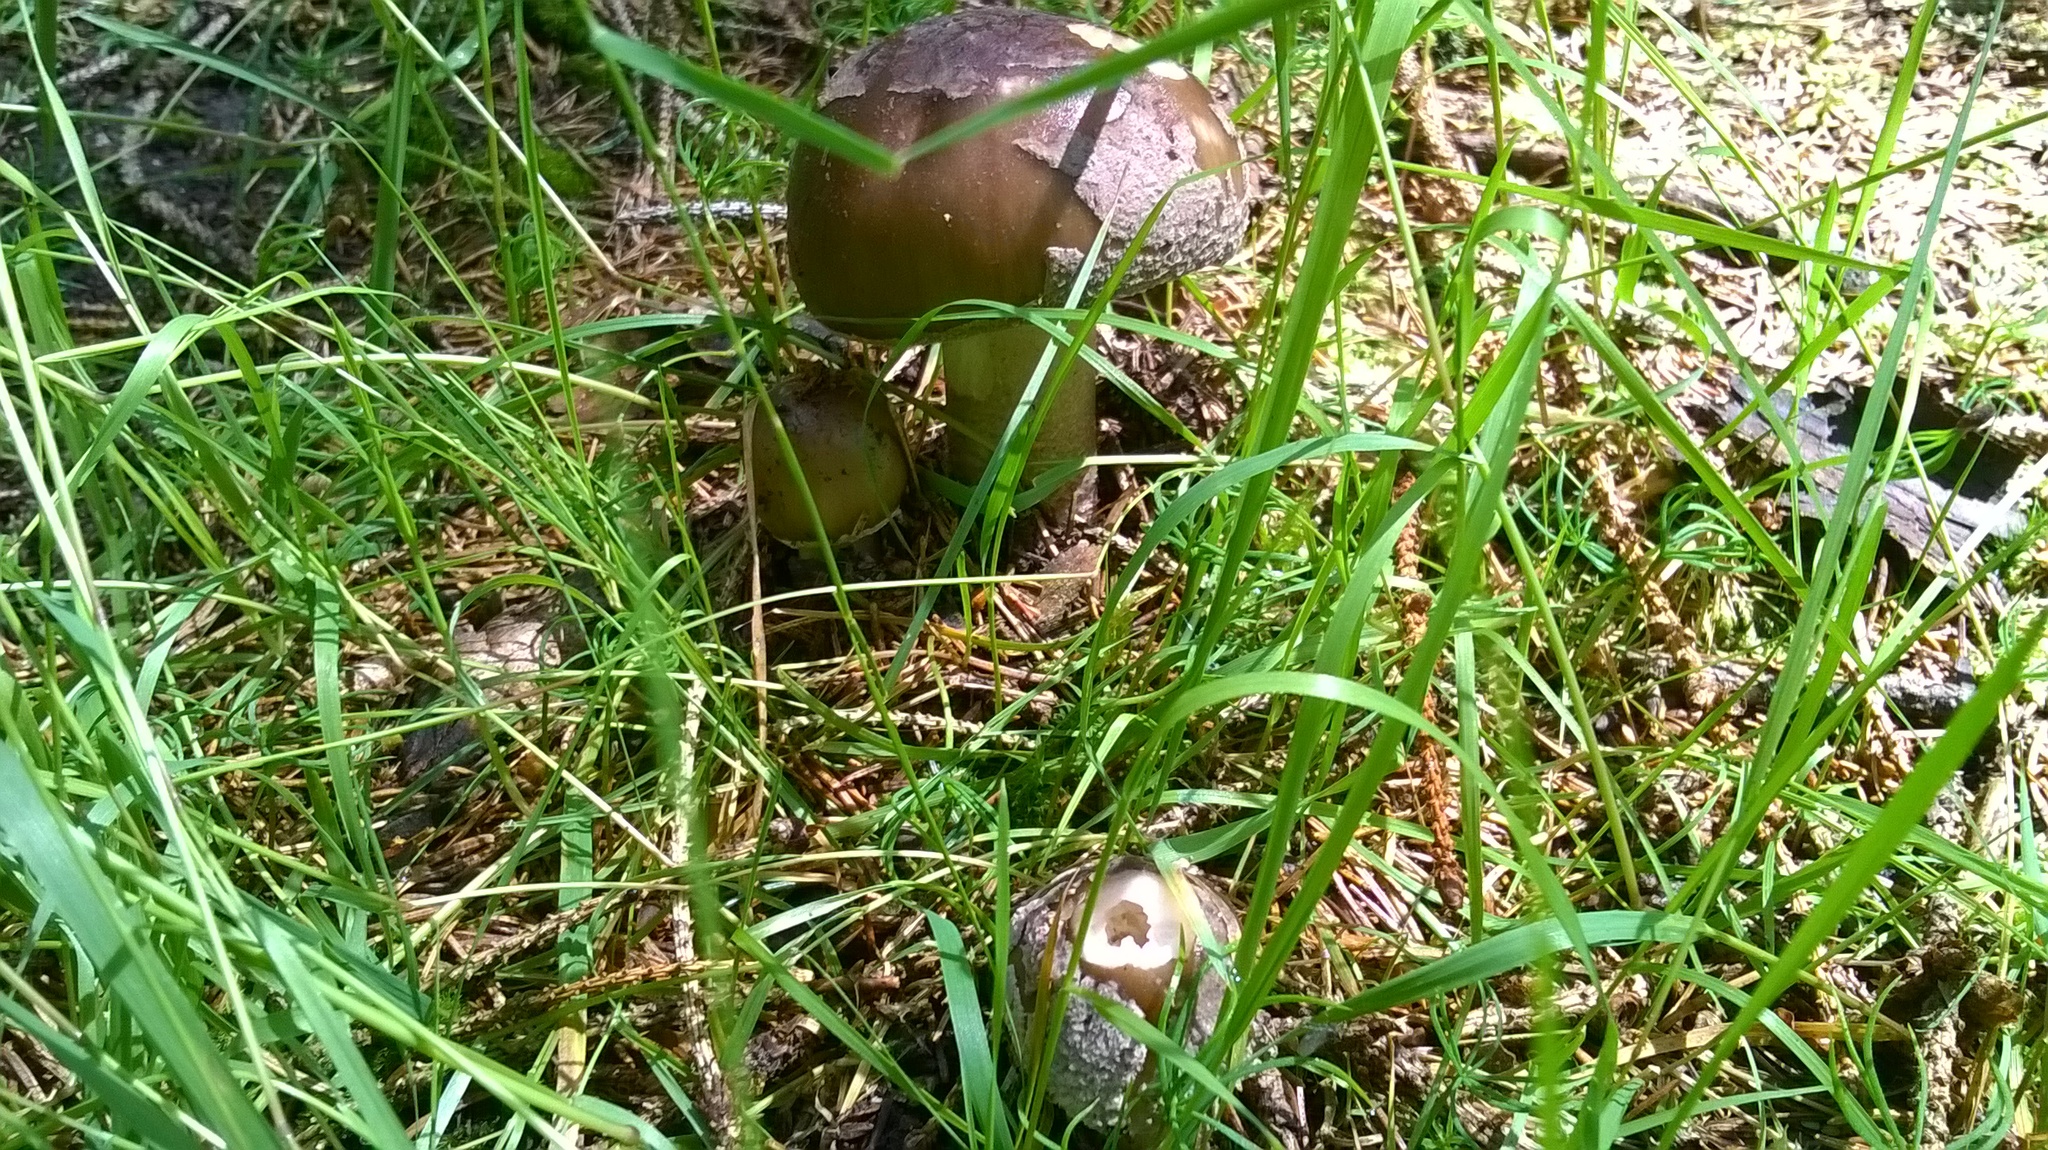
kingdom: Fungi
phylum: Basidiomycota
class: Agaricomycetes
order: Agaricales
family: Amanitaceae
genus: Amanita
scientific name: Amanita excelsa
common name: European false blusher
